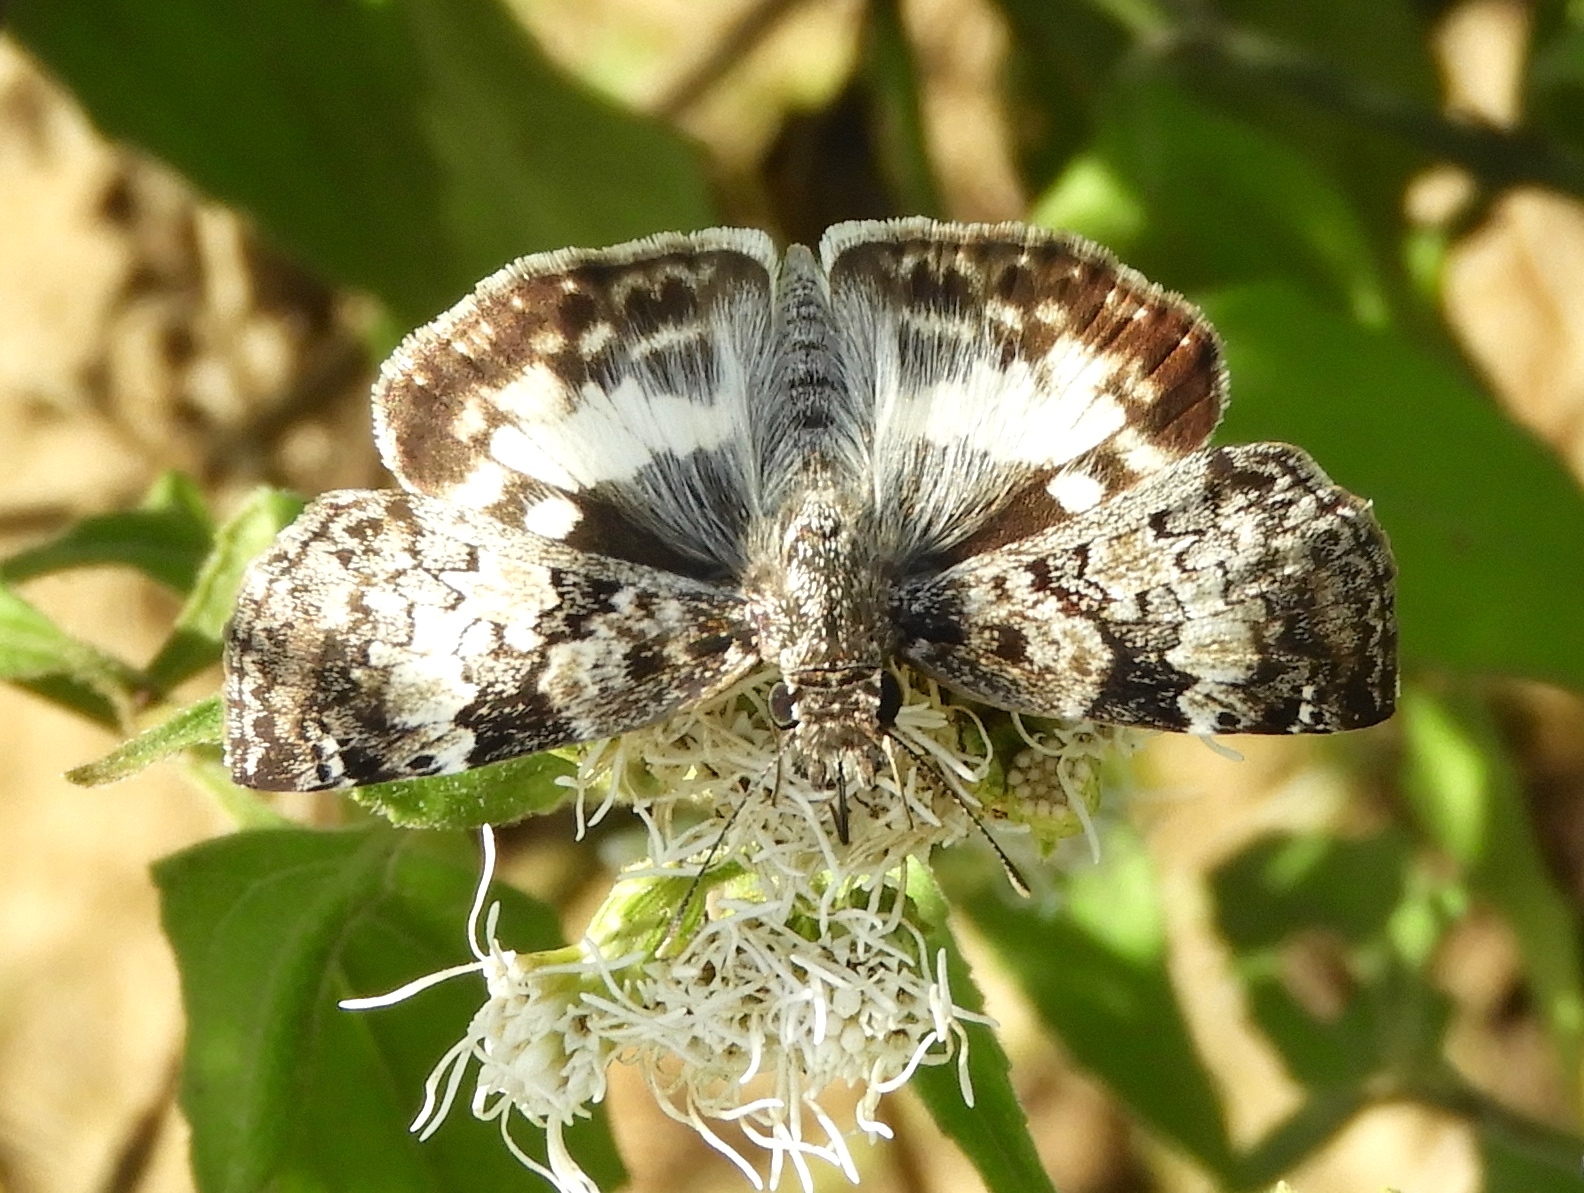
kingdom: Animalia
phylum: Arthropoda
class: Insecta
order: Lepidoptera
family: Hesperiidae
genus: Chiothion
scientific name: Chiothion georgina
